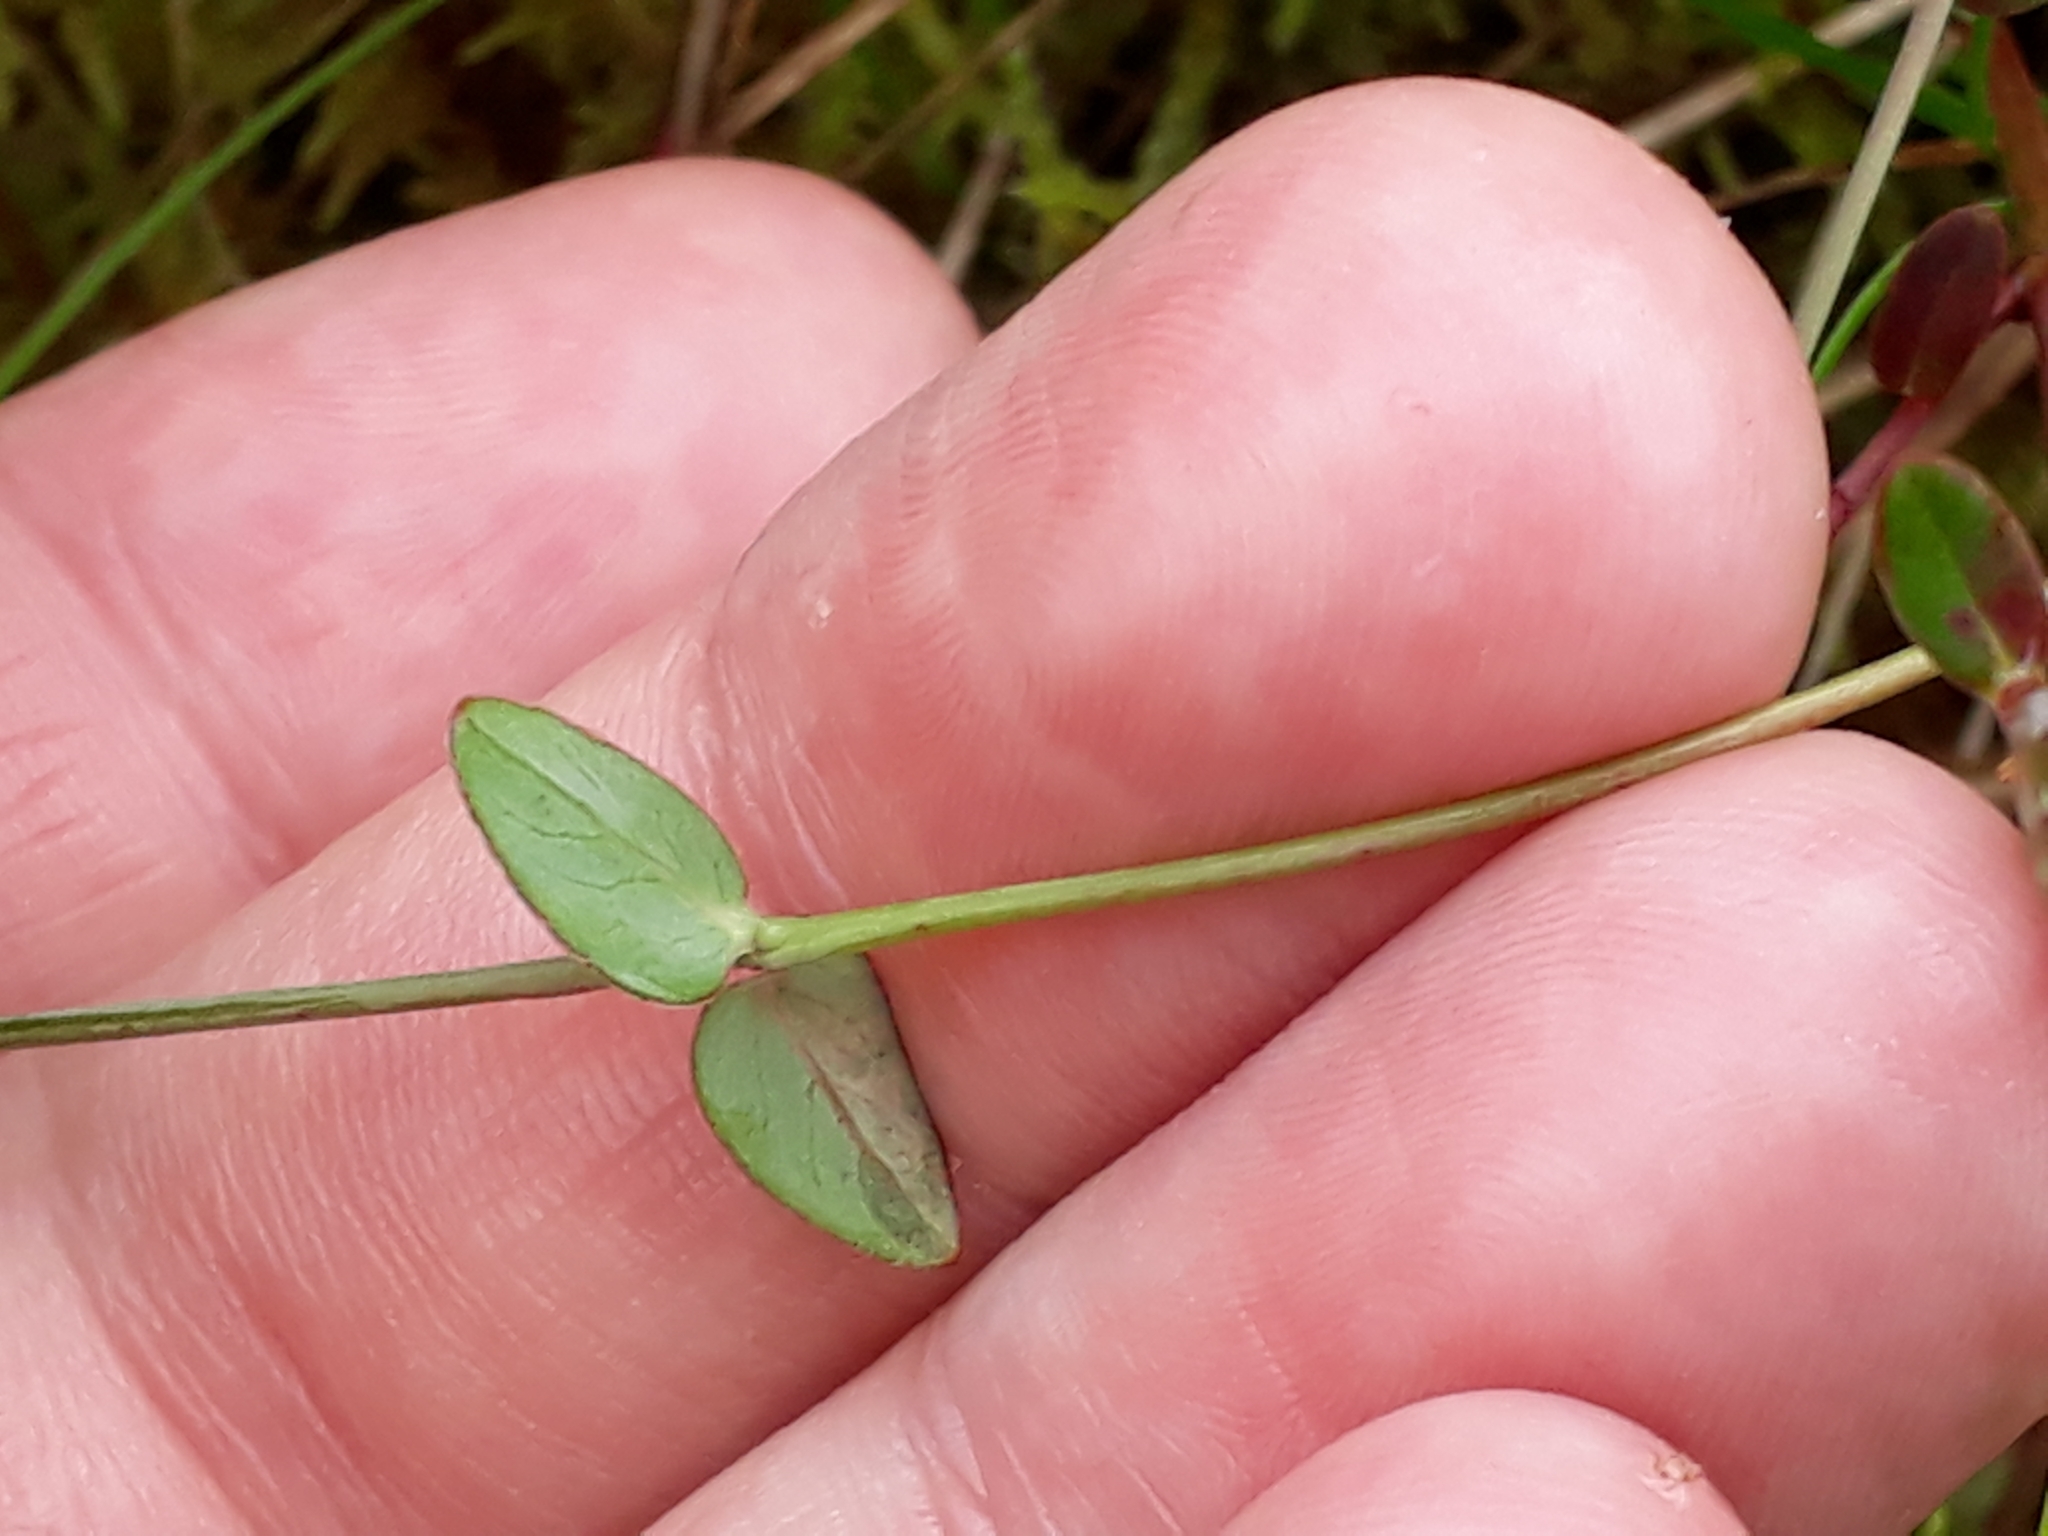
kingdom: Plantae
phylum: Tracheophyta
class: Magnoliopsida
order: Malpighiales
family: Hypericaceae
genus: Hypericum
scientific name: Hypericum pulchrum
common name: Slender st. john's-wort
